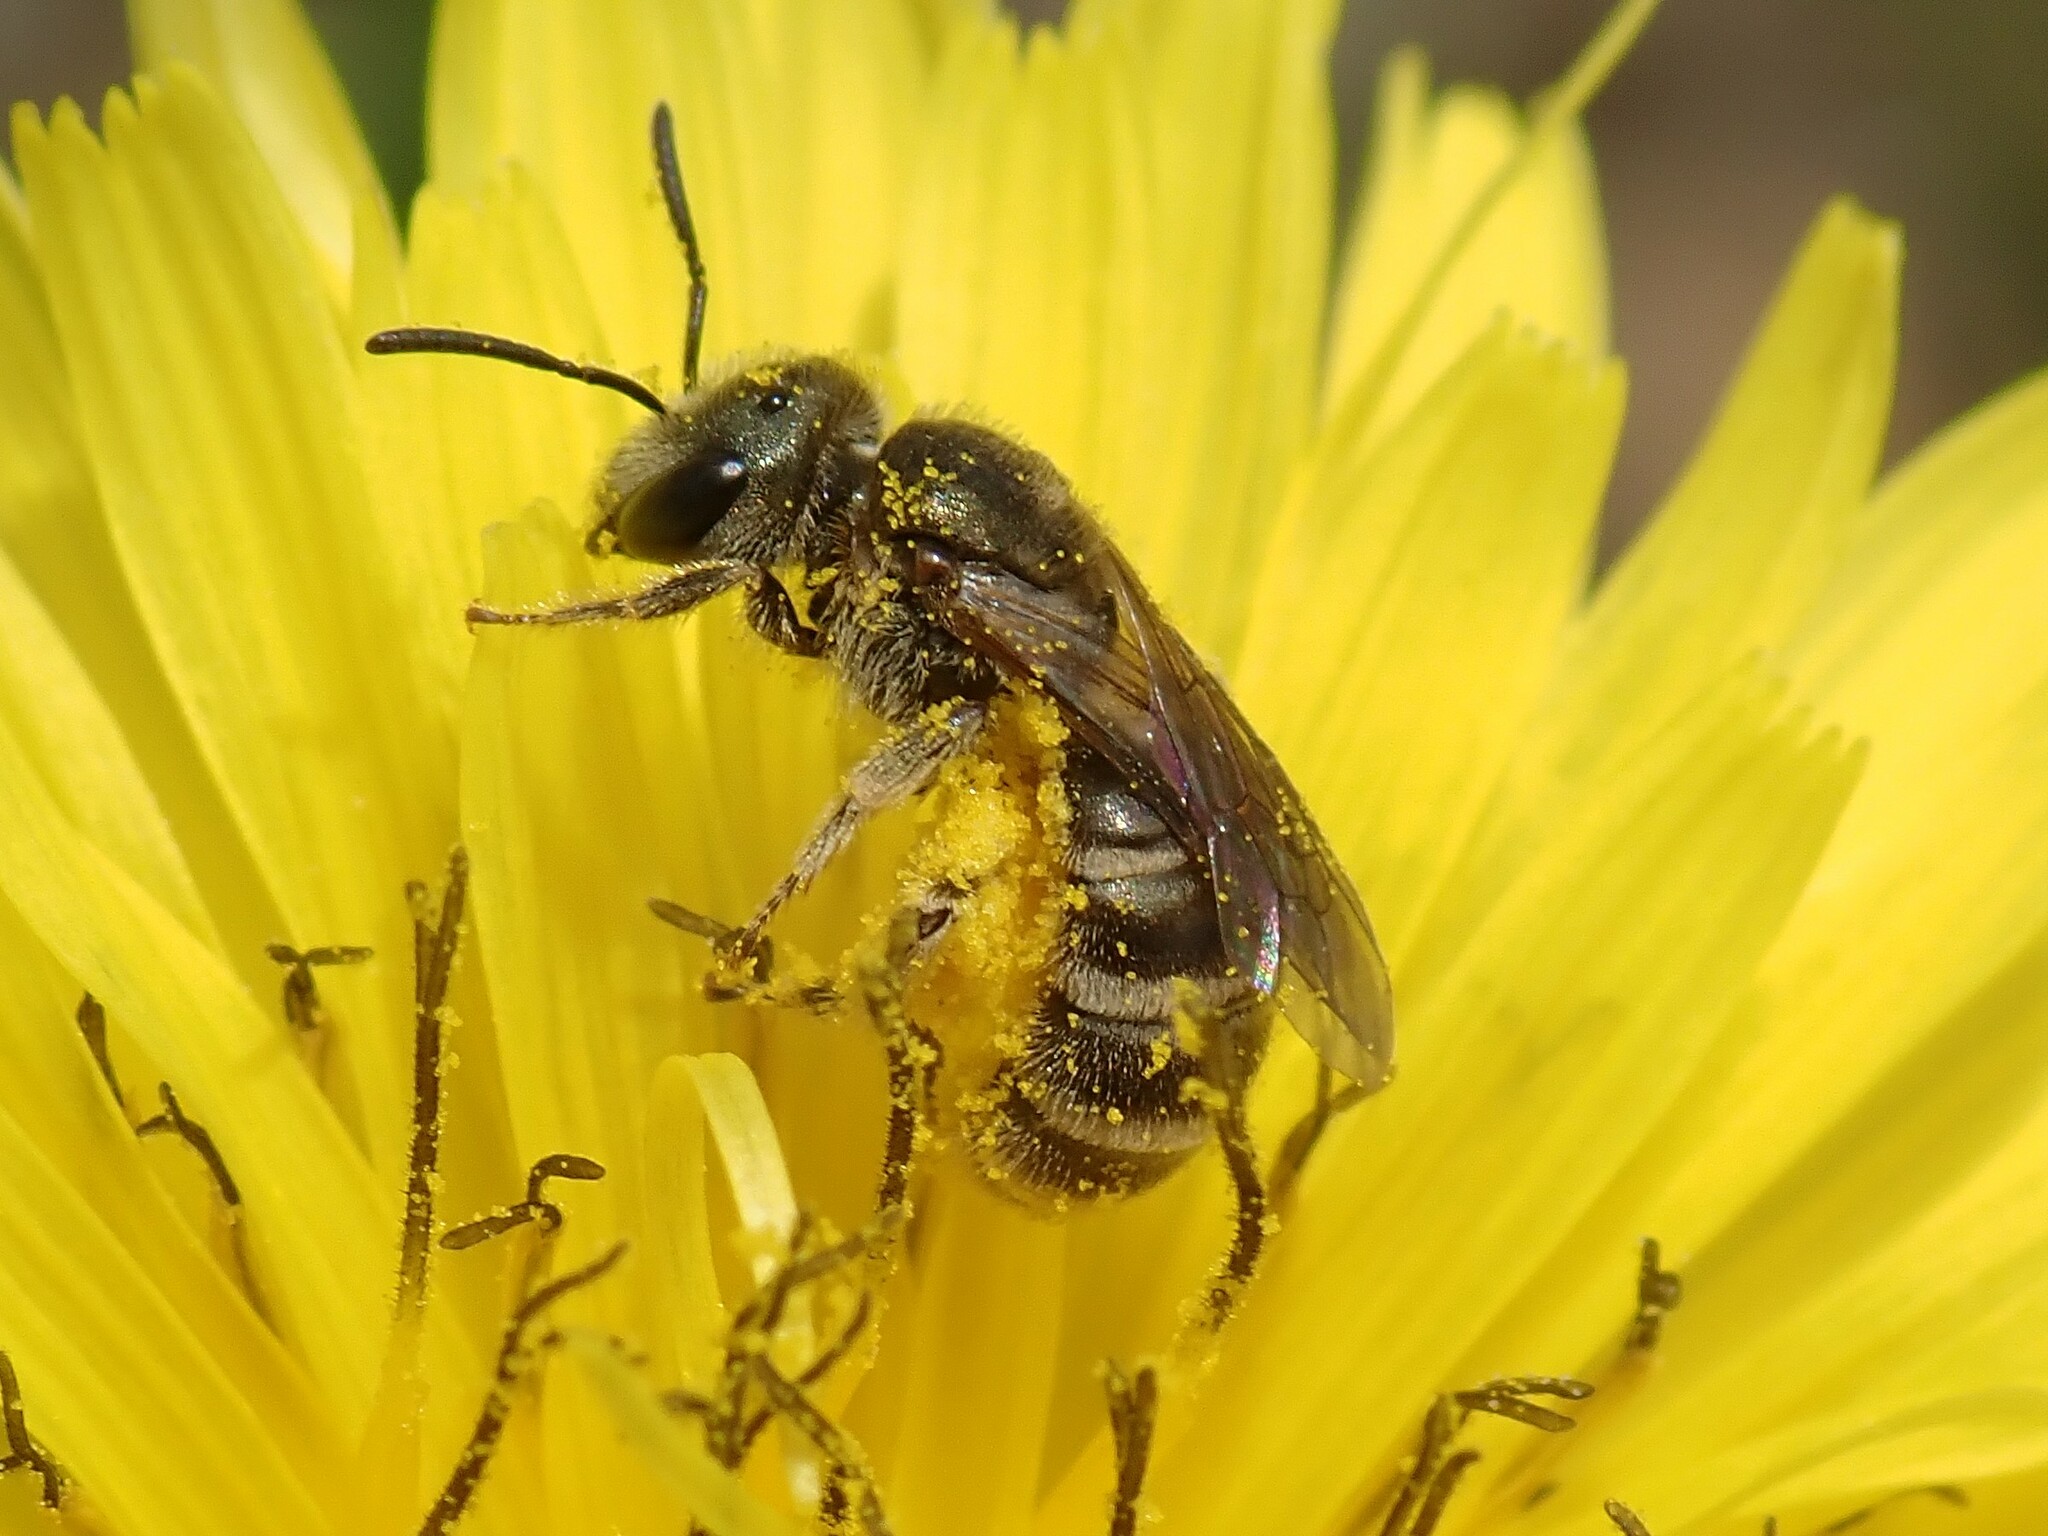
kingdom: Animalia
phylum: Arthropoda
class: Insecta
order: Hymenoptera
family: Halictidae
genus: Halictus
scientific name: Halictus tripartitus
